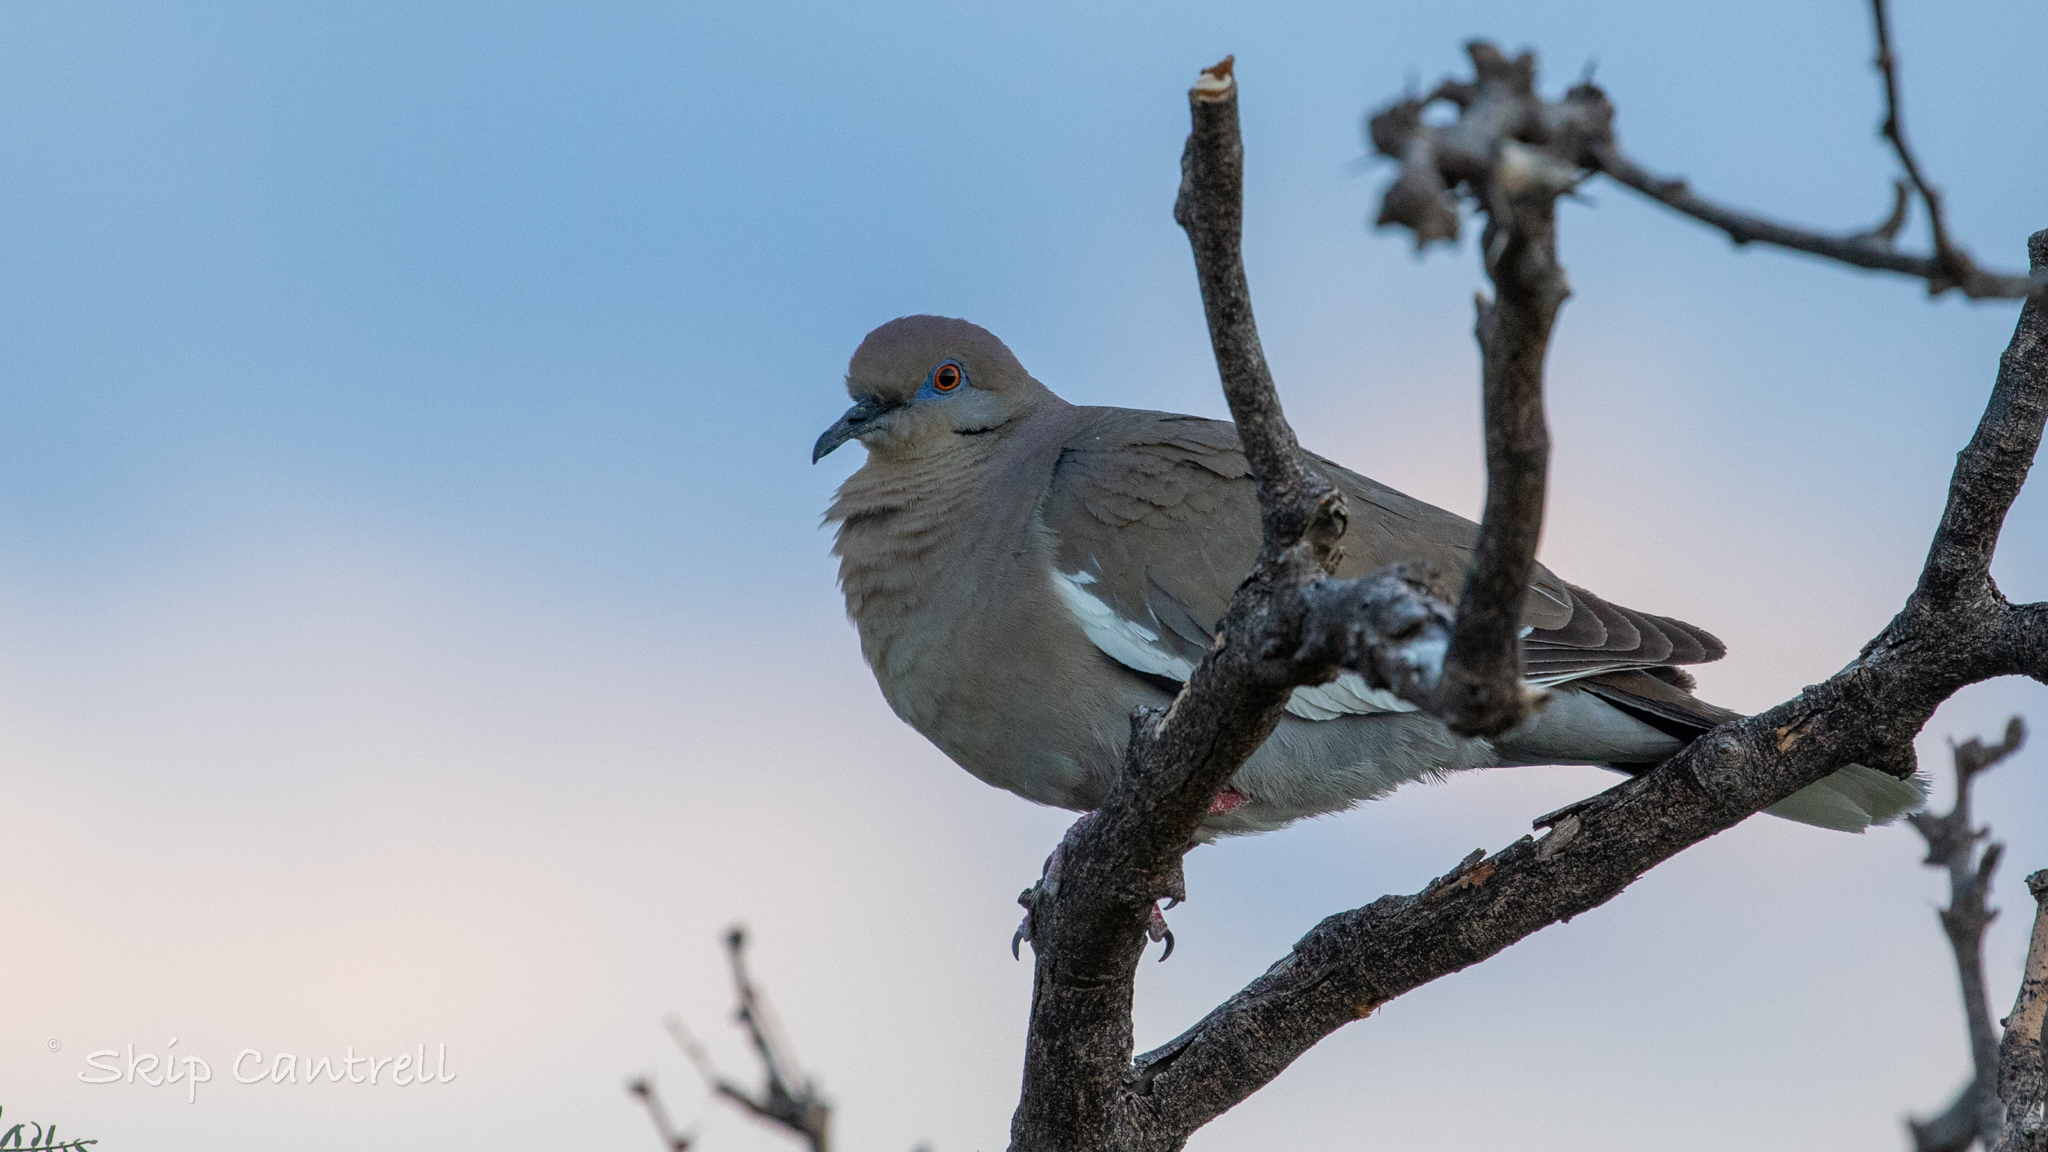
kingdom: Animalia
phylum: Chordata
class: Aves
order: Columbiformes
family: Columbidae
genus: Zenaida
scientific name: Zenaida asiatica
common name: White-winged dove
